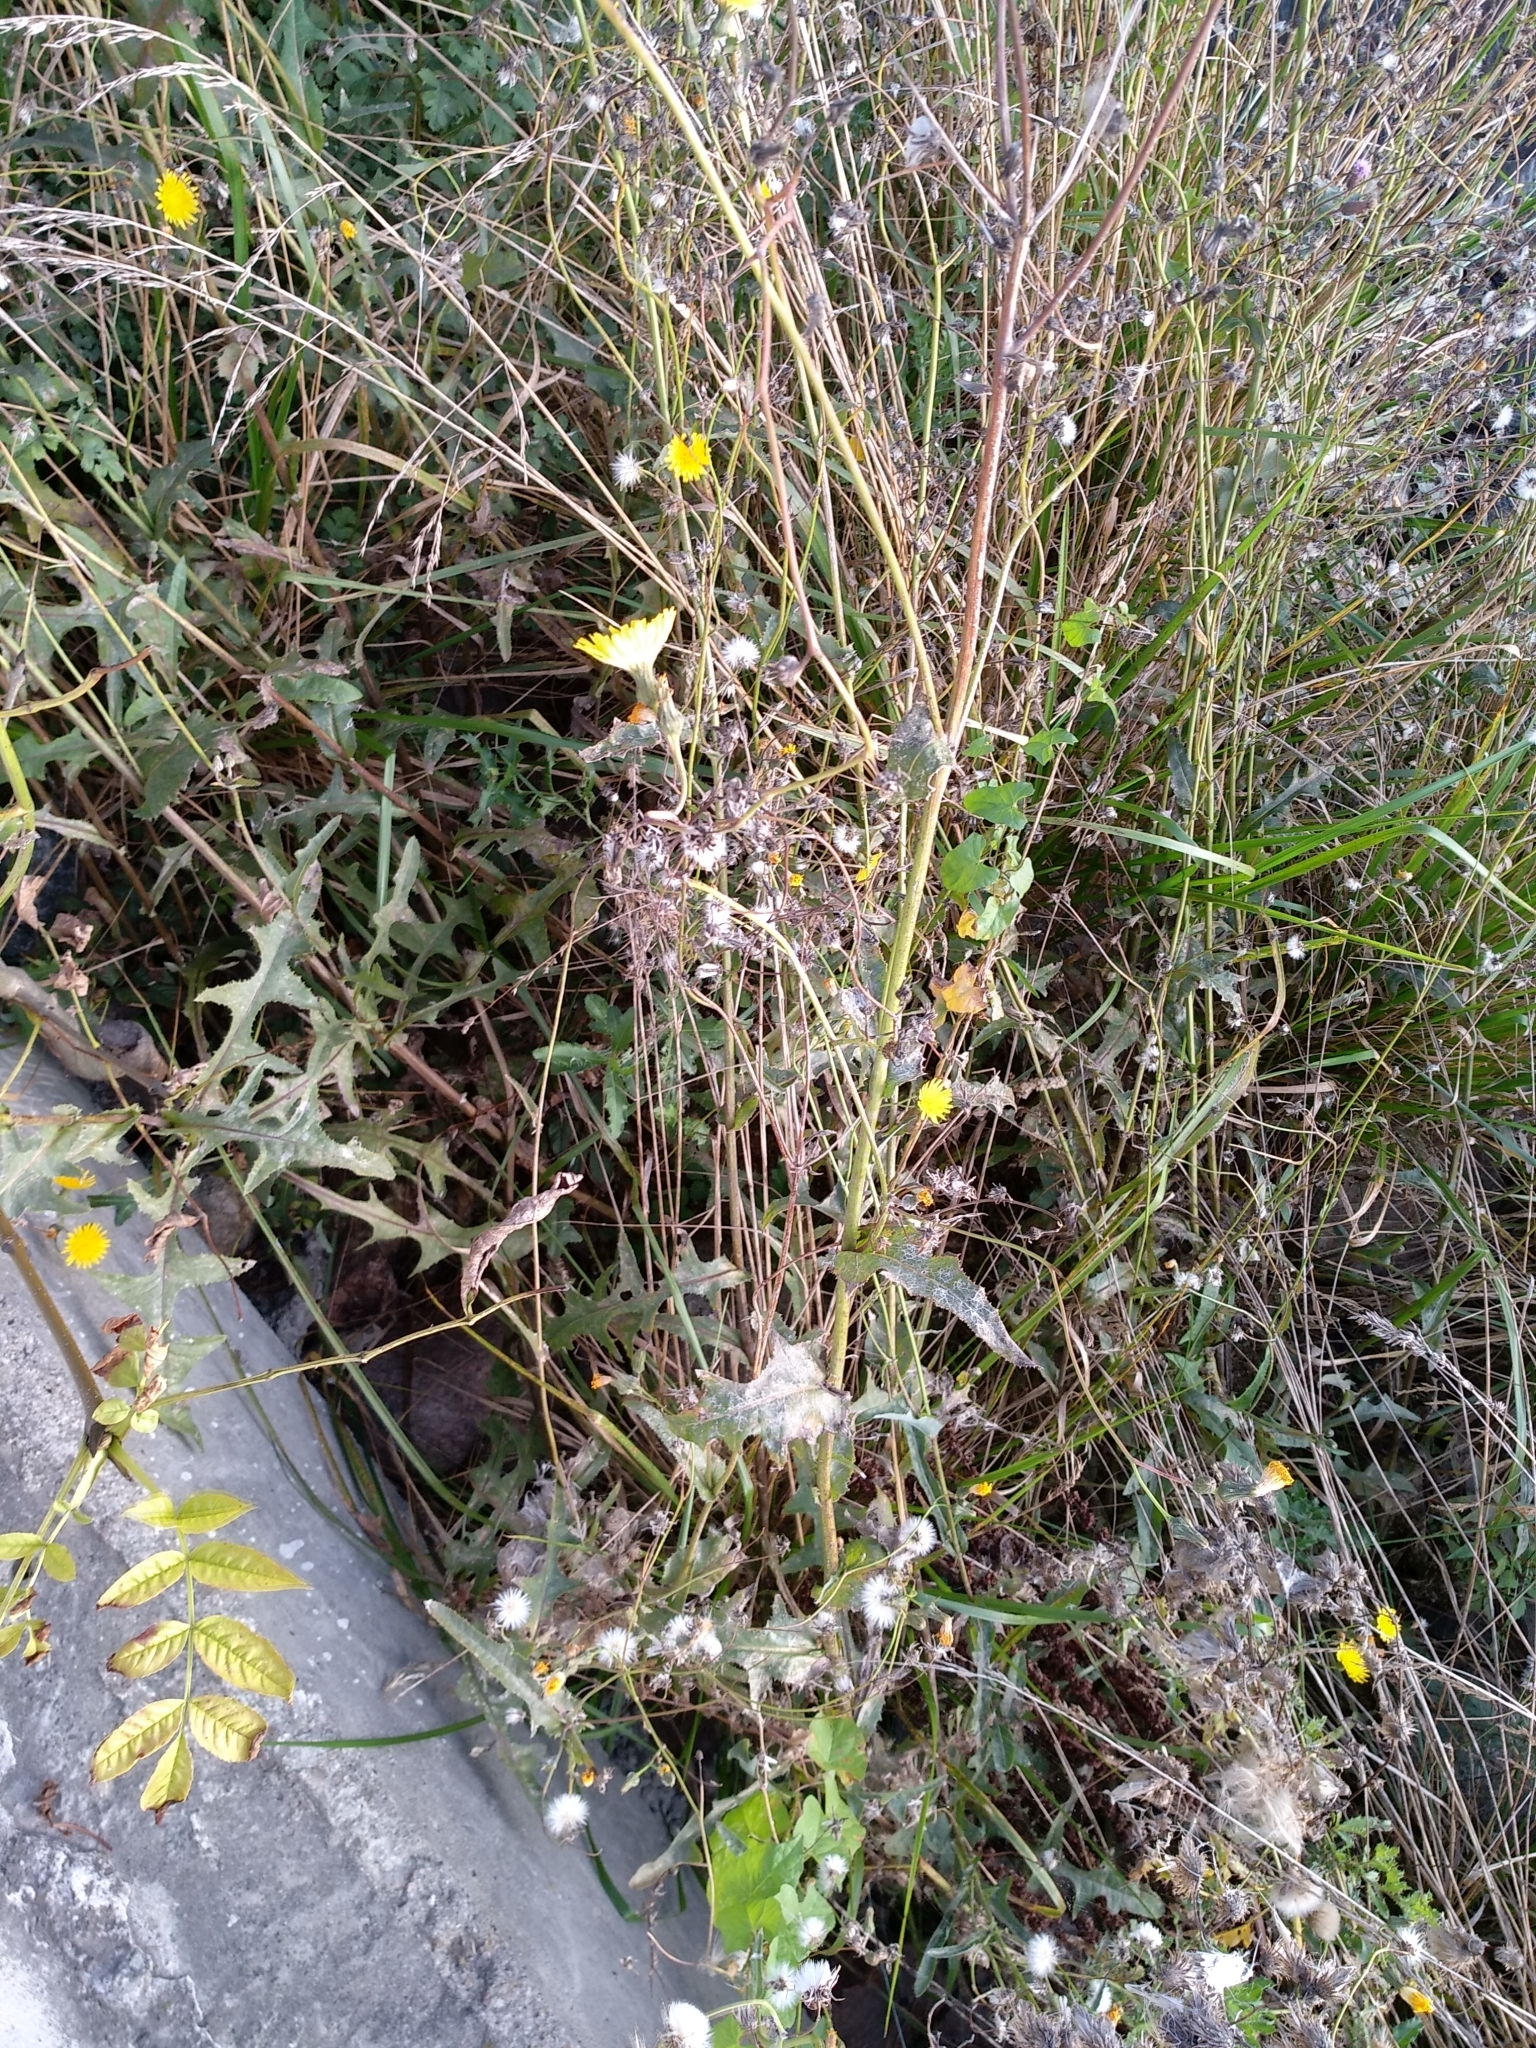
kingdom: Plantae
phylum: Tracheophyta
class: Magnoliopsida
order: Asterales
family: Asteraceae
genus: Sonchus
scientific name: Sonchus arvensis
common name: Perennial sow-thistle
